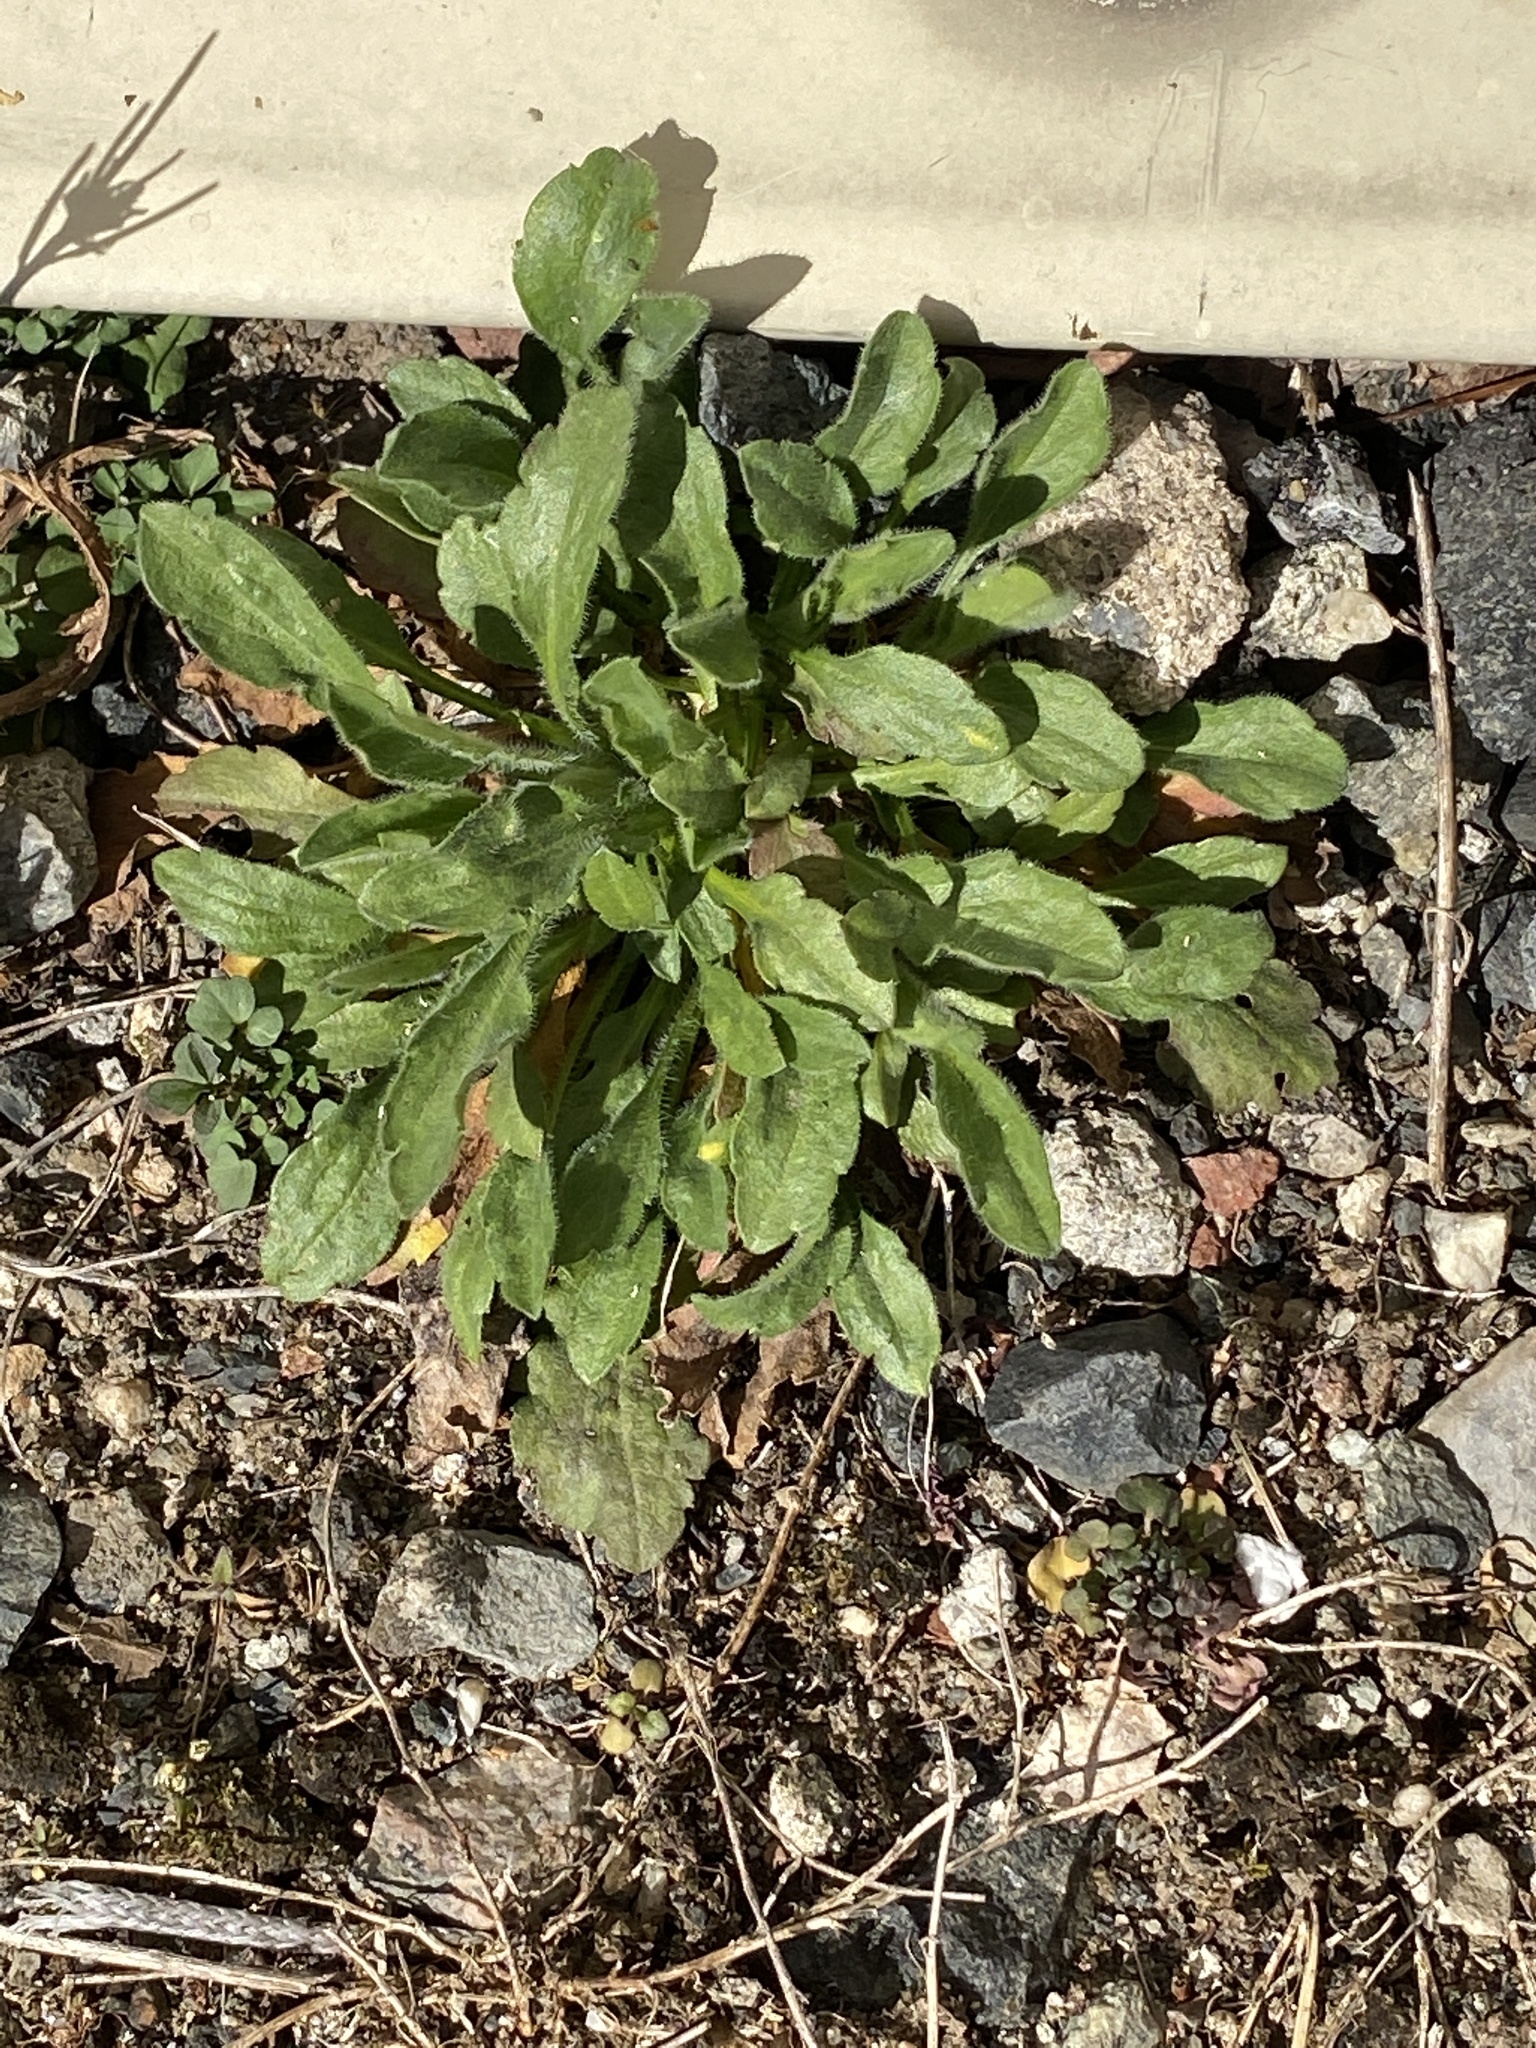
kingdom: Plantae
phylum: Tracheophyta
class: Magnoliopsida
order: Asterales
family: Asteraceae
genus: Erigeron
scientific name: Erigeron canadensis
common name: Canadian fleabane
